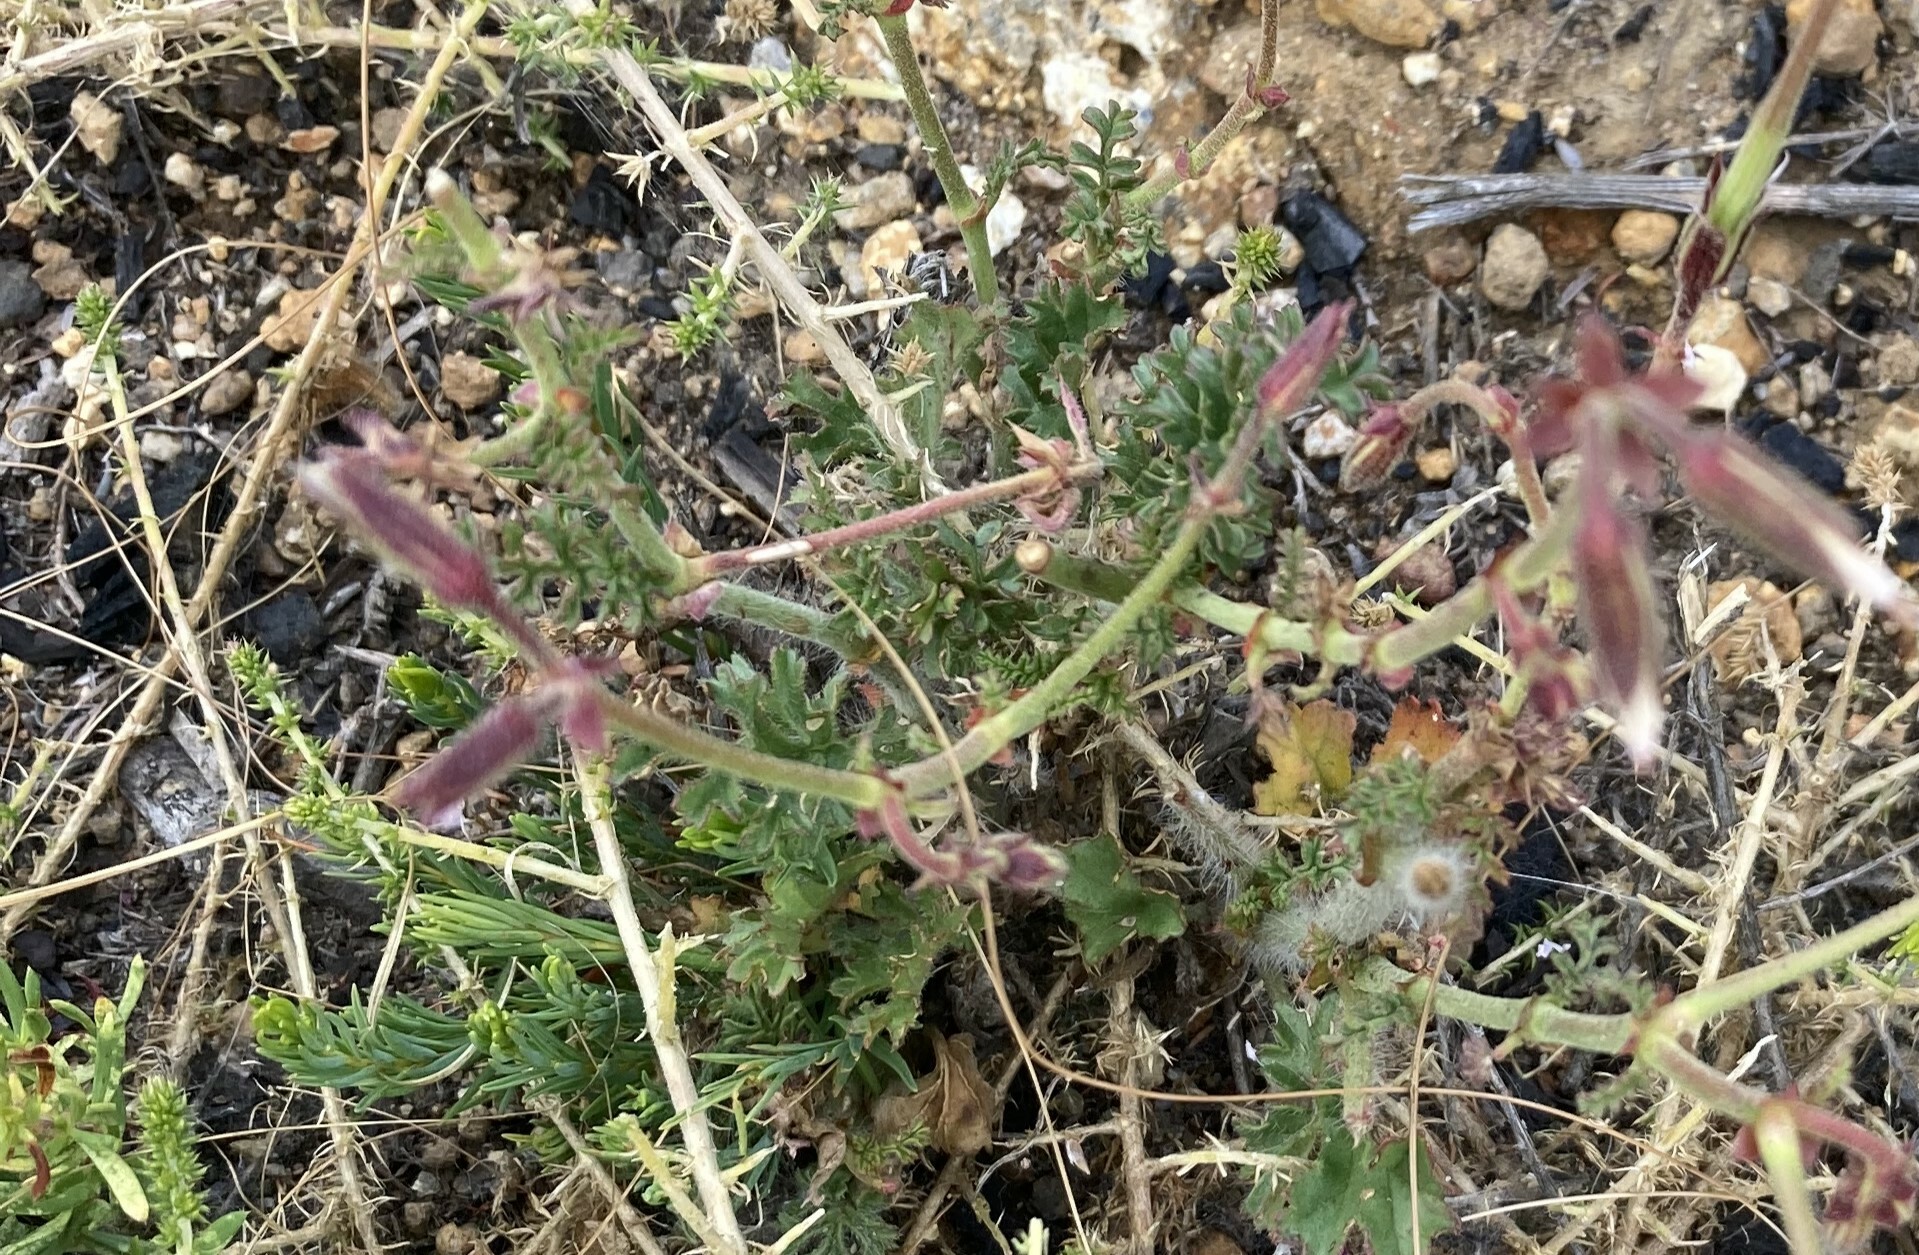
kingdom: Plantae
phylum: Tracheophyta
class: Magnoliopsida
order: Geraniales
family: Geraniaceae
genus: Pelargonium
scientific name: Pelargonium myrrhifolium
